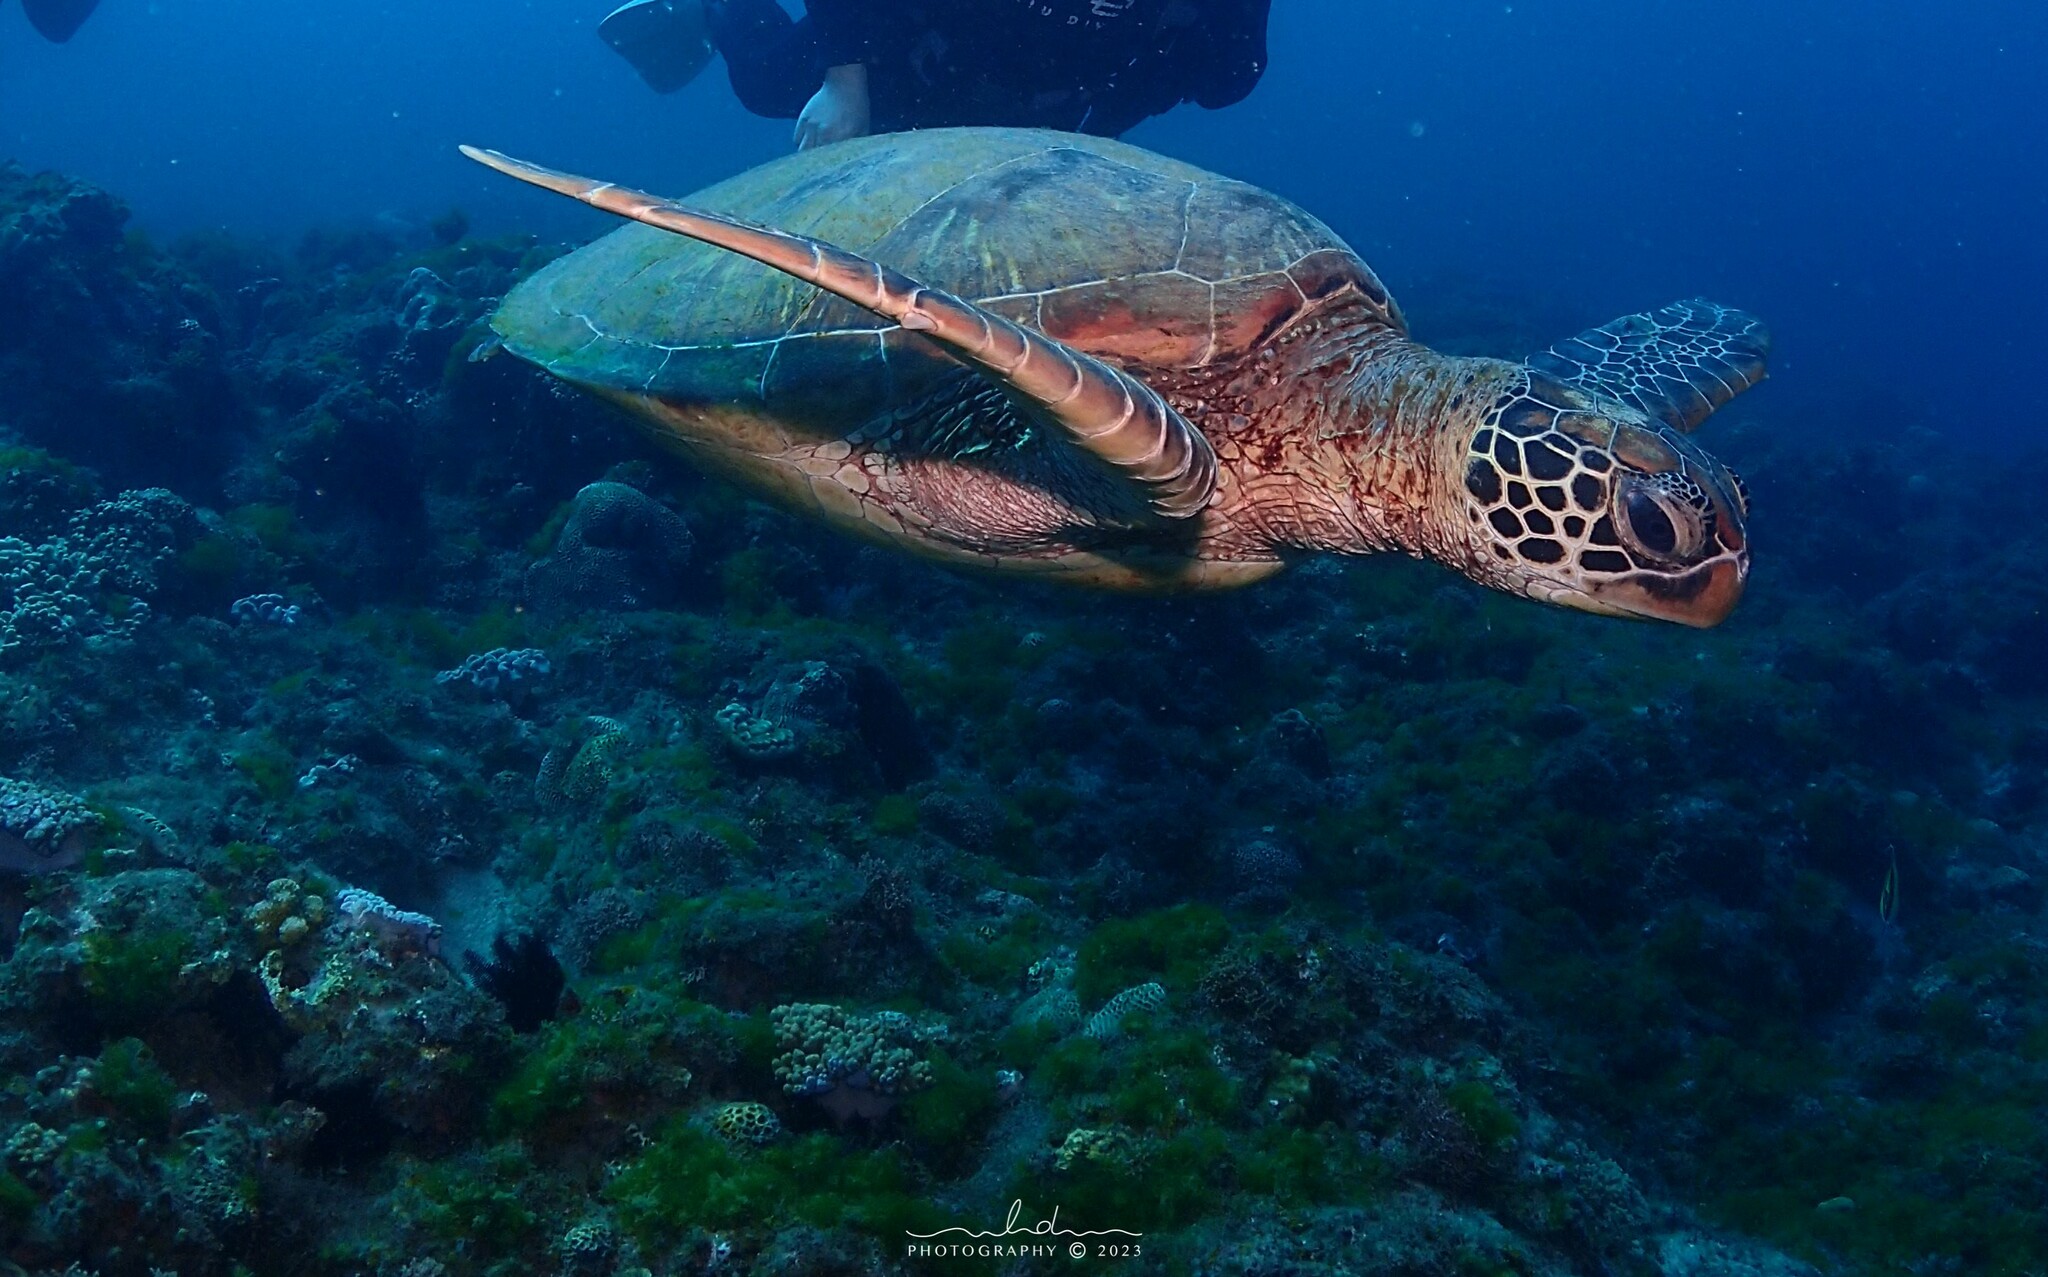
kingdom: Animalia
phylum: Chordata
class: Testudines
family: Cheloniidae
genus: Chelonia
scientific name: Chelonia mydas
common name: Green turtle
